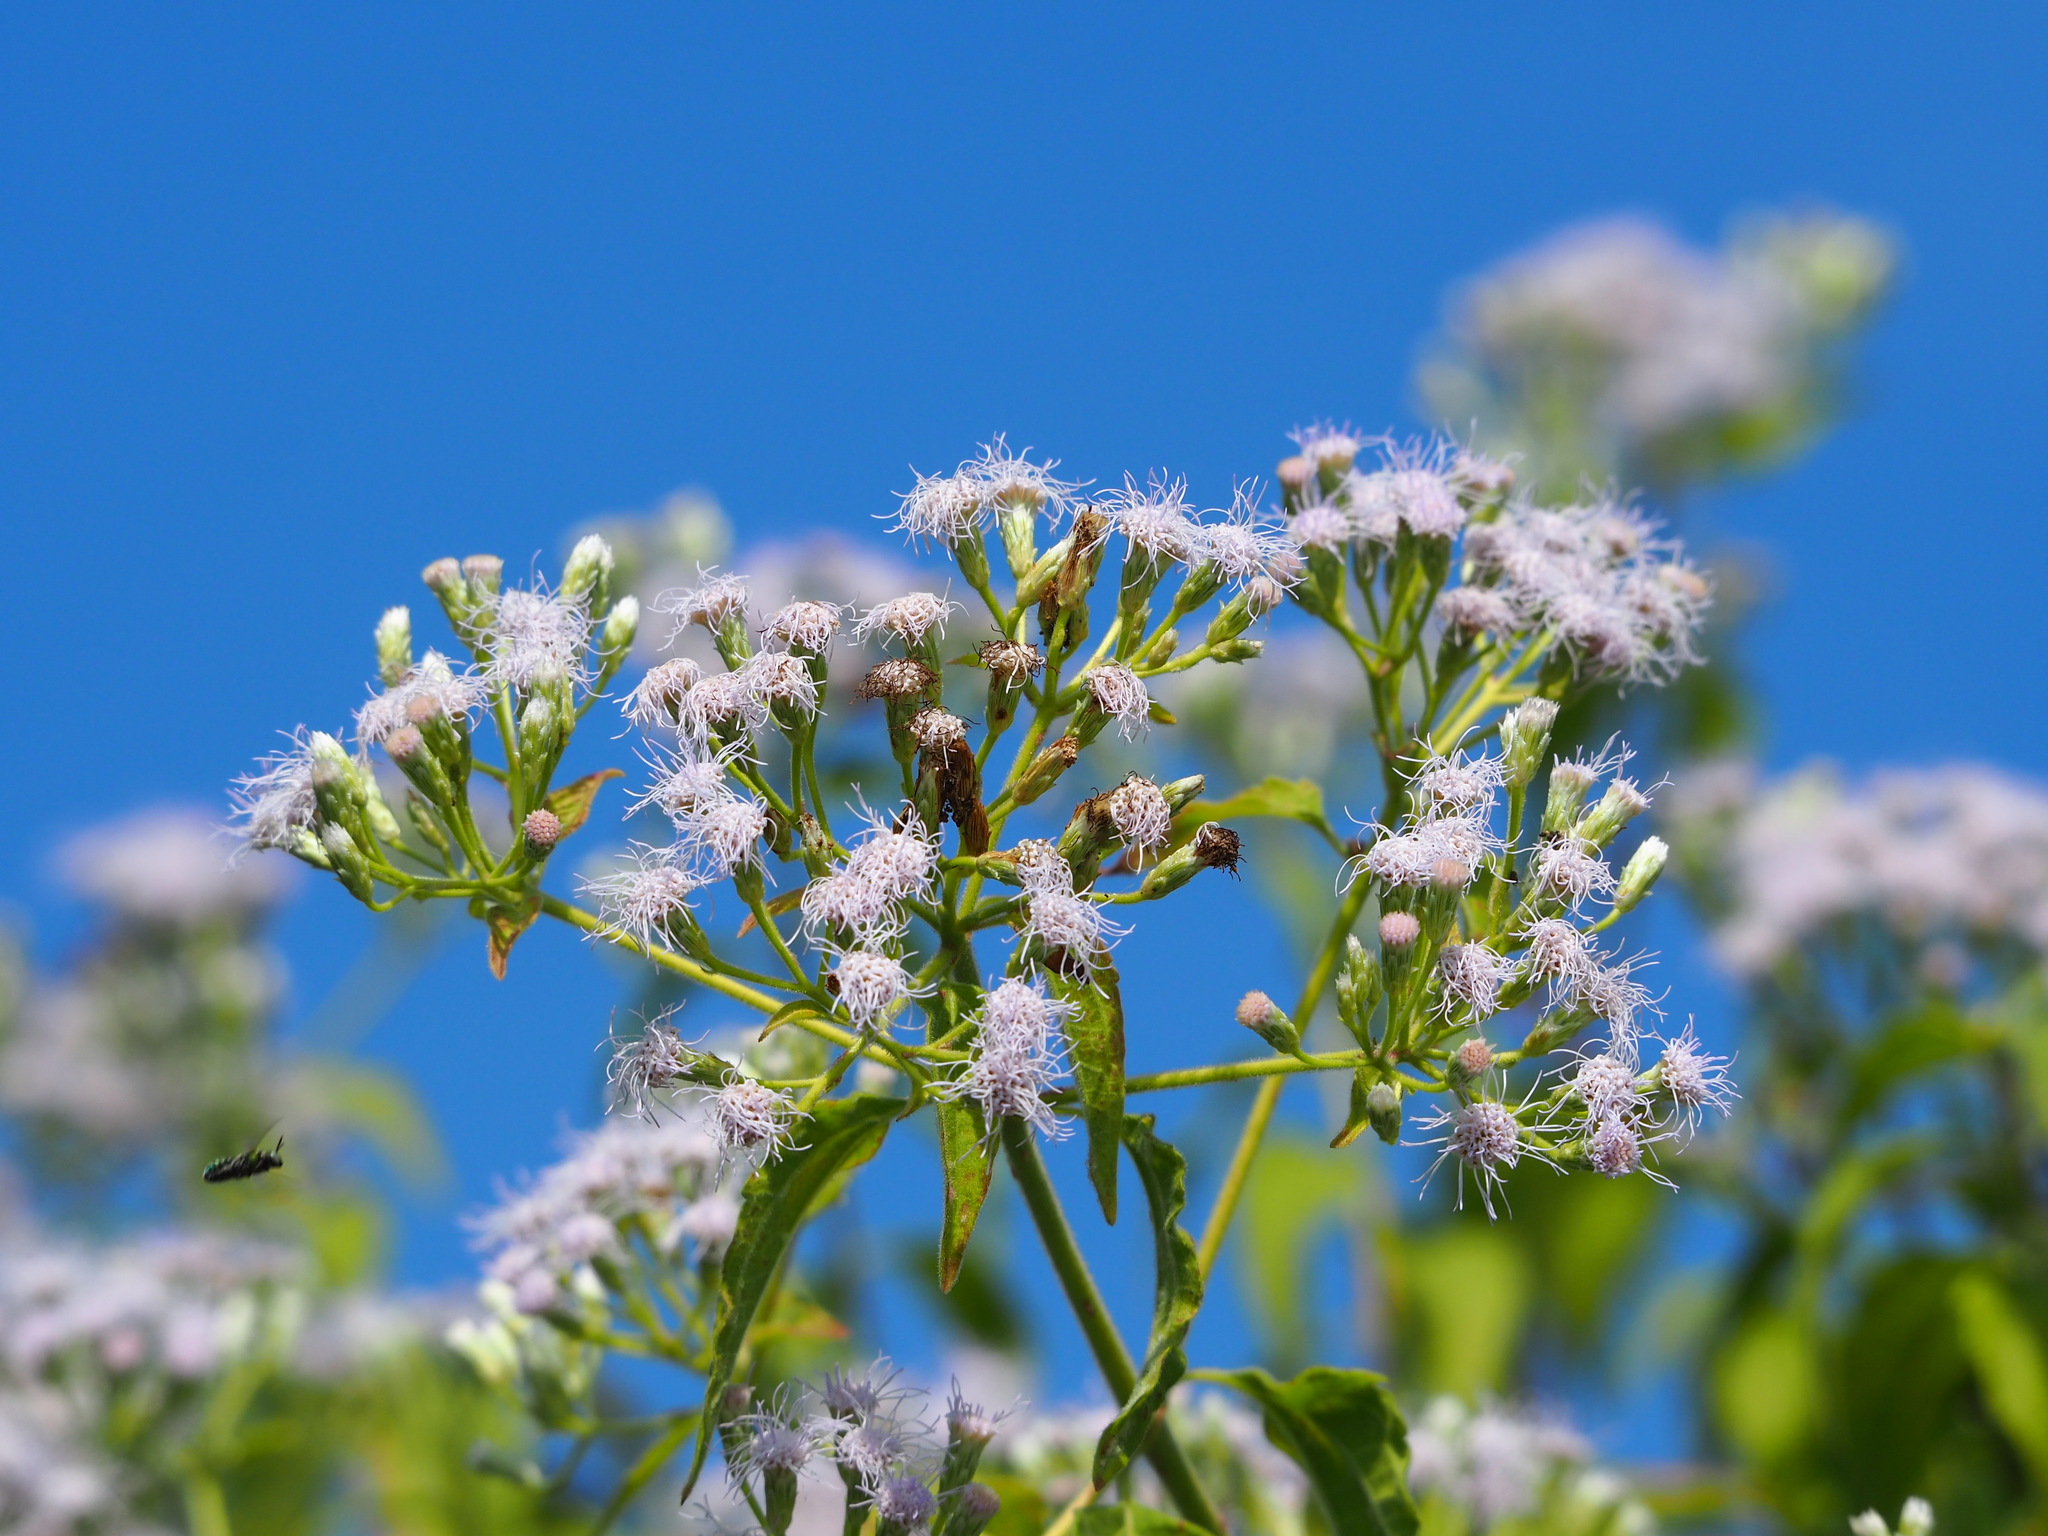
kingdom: Plantae
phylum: Tracheophyta
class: Magnoliopsida
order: Asterales
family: Asteraceae
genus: Chromolaena
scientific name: Chromolaena odorata
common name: Siamweed
